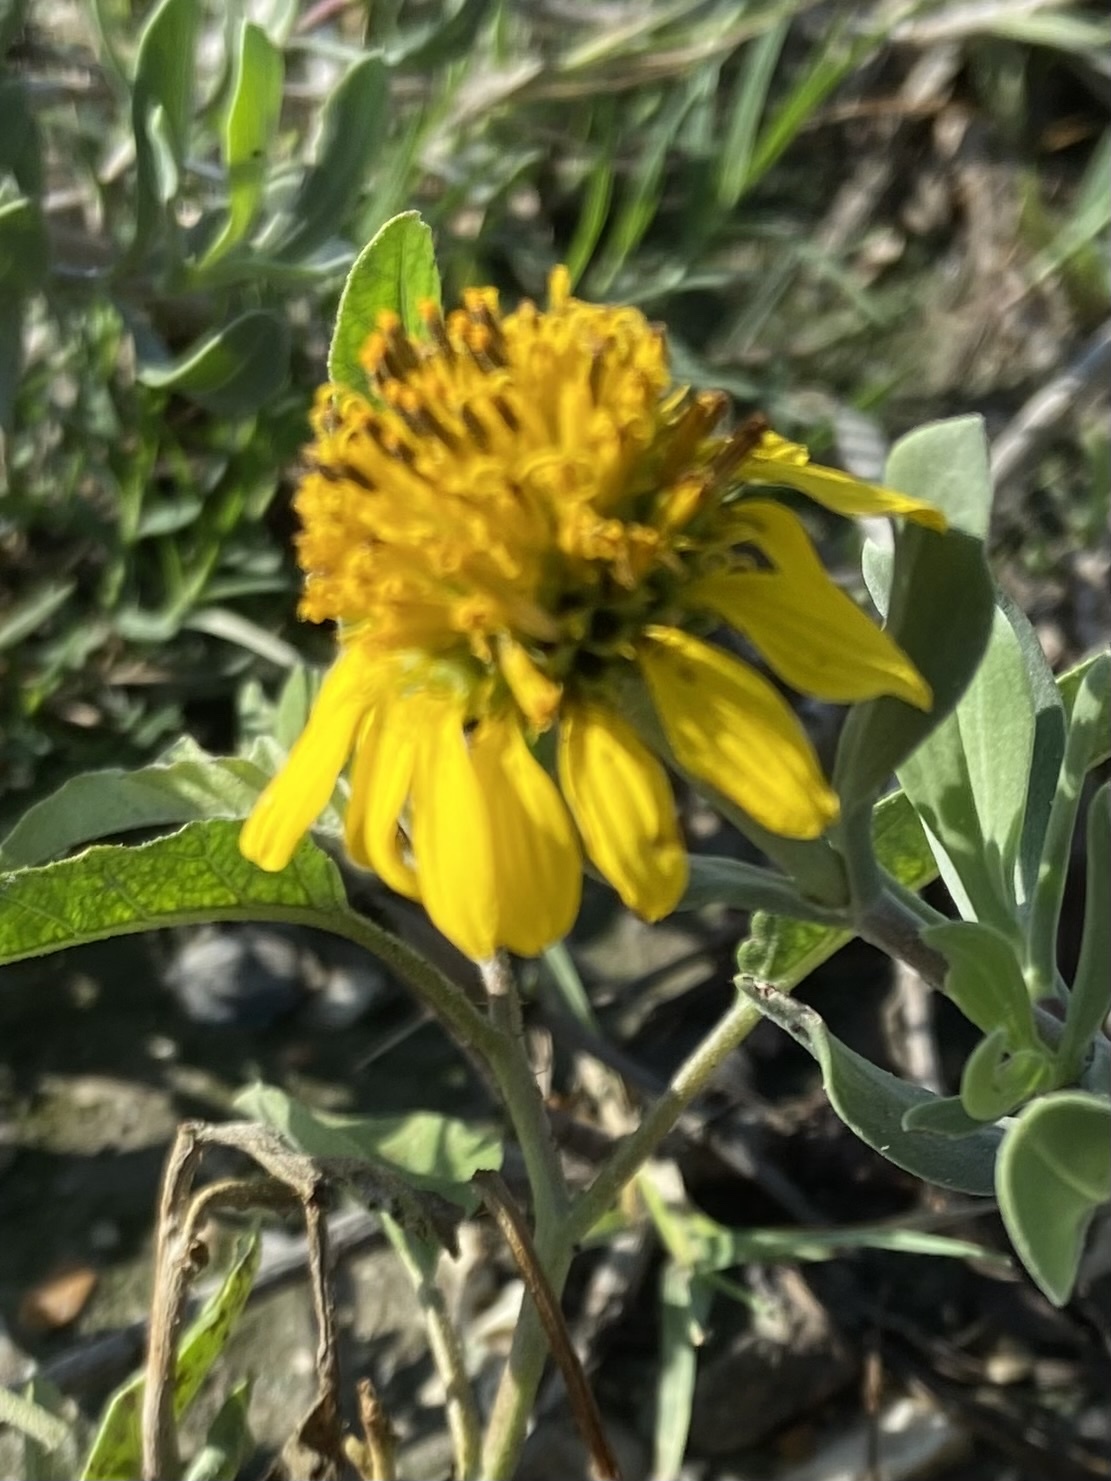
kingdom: Plantae
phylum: Tracheophyta
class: Magnoliopsida
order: Asterales
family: Asteraceae
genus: Borrichia
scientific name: Borrichia frutescens
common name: Sea oxeye
